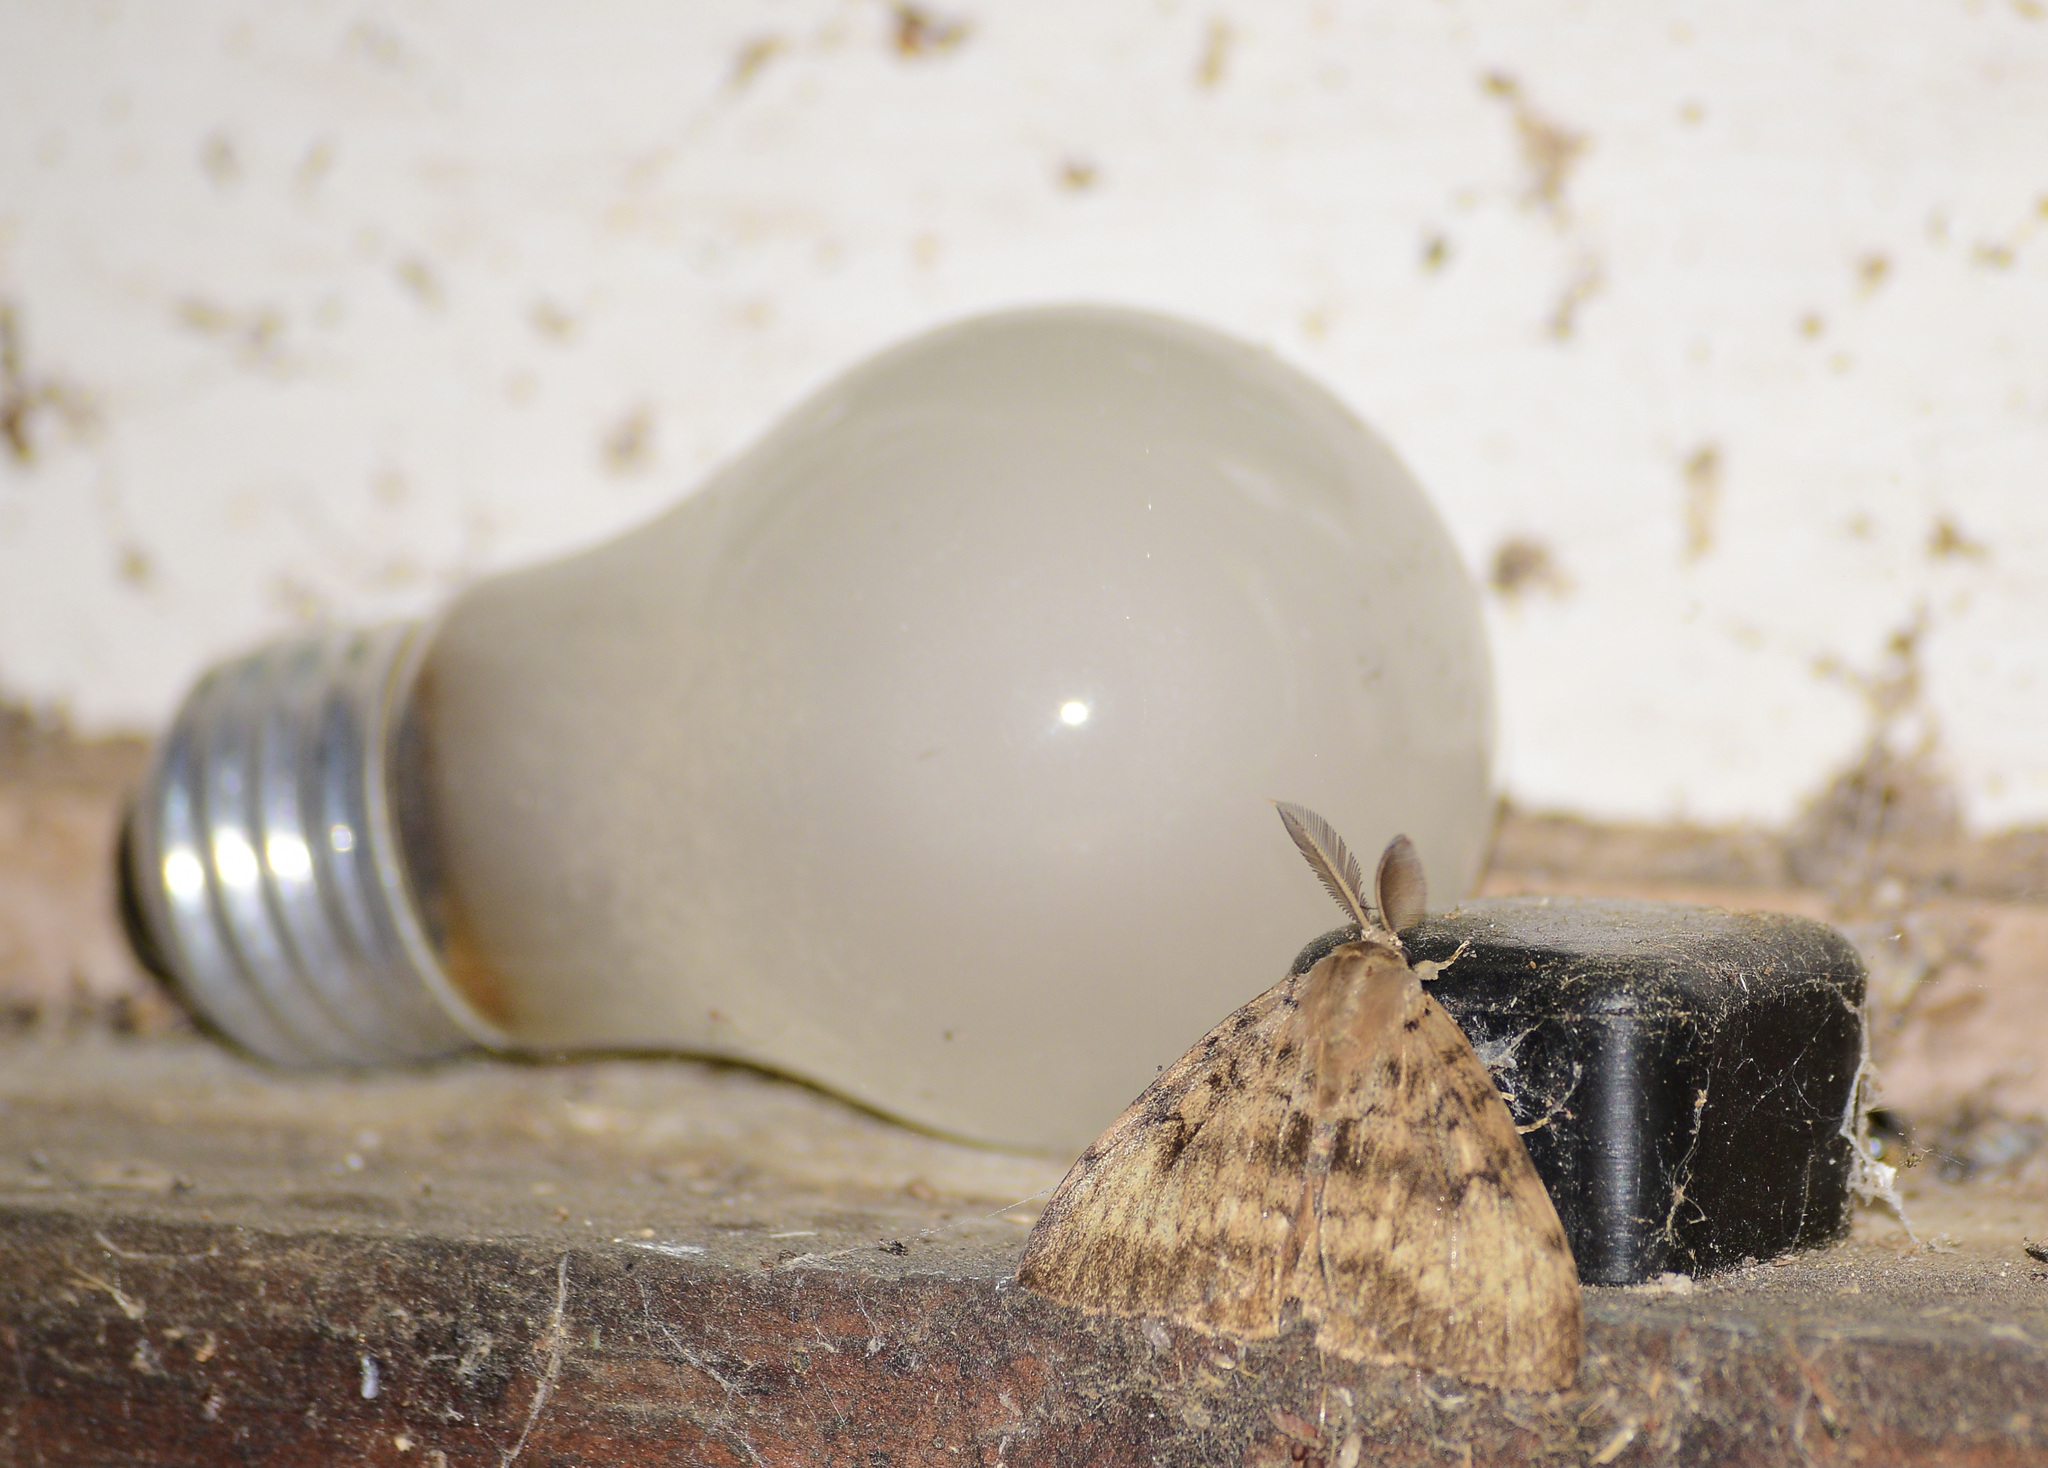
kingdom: Animalia
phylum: Arthropoda
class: Insecta
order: Lepidoptera
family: Erebidae
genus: Lymantria
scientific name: Lymantria dispar
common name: Gypsy moth
